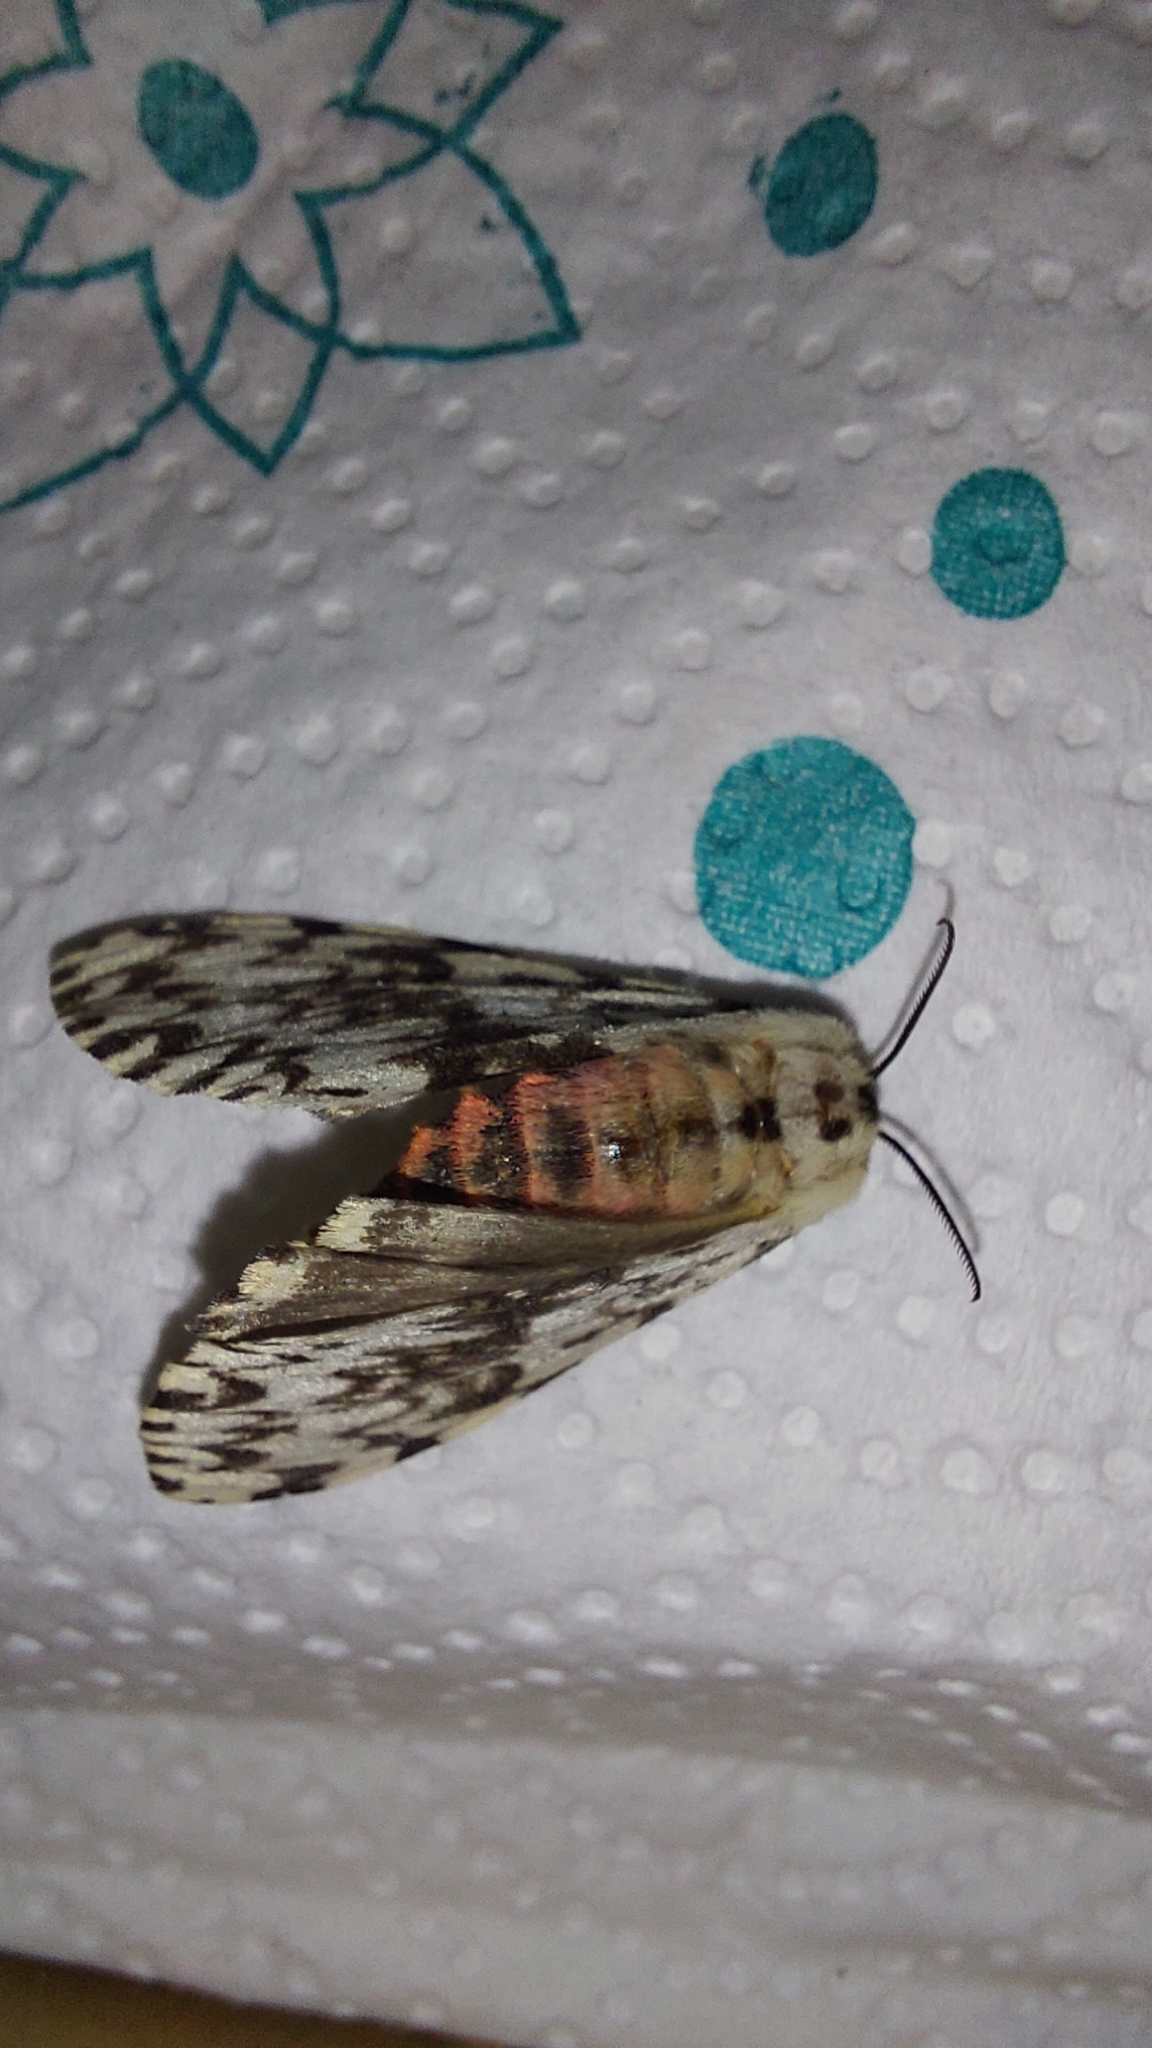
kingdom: Animalia
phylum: Arthropoda
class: Insecta
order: Lepidoptera
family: Erebidae
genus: Lymantria
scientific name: Lymantria monacha
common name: Black arches
